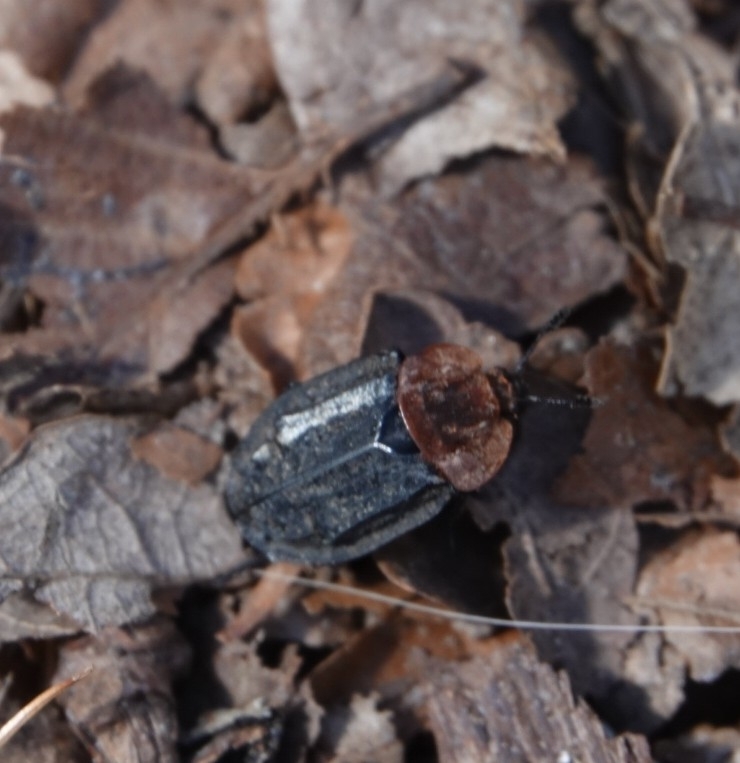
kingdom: Animalia
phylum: Arthropoda
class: Insecta
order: Coleoptera
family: Staphylinidae
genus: Oiceoptoma
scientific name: Oiceoptoma thoracicum
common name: Red-breasted carrion beetle
